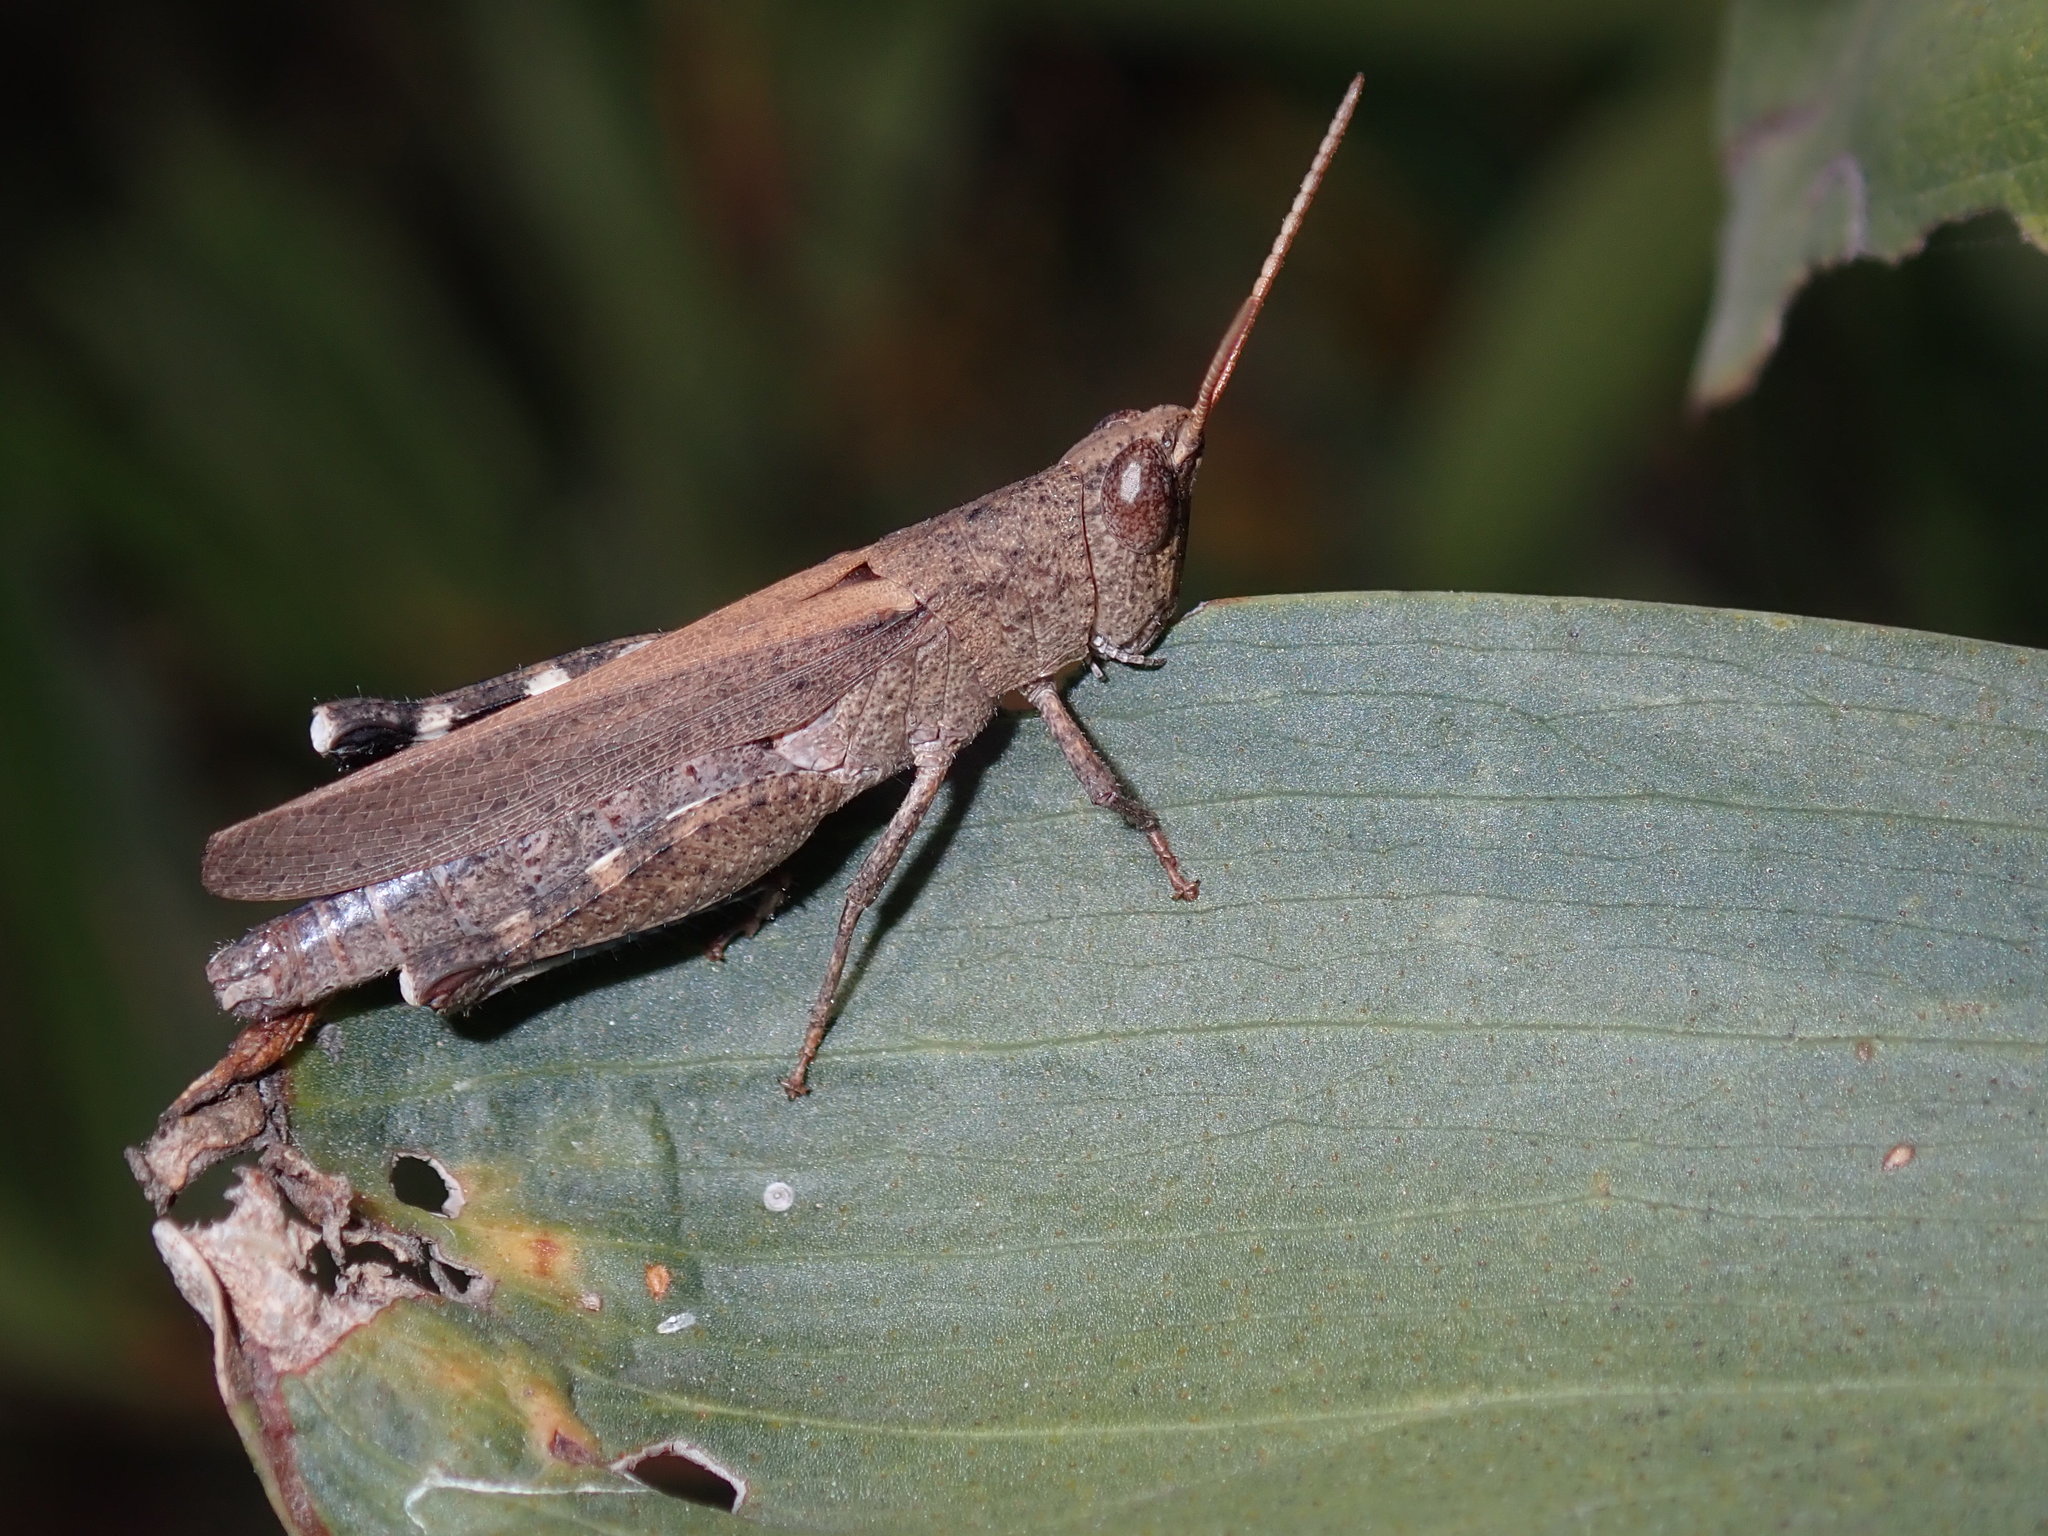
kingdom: Animalia
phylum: Arthropoda
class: Insecta
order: Orthoptera
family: Acrididae
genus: Goniaea
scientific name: Goniaea opomaloides
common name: Mimetic gumleaf grasshopper
